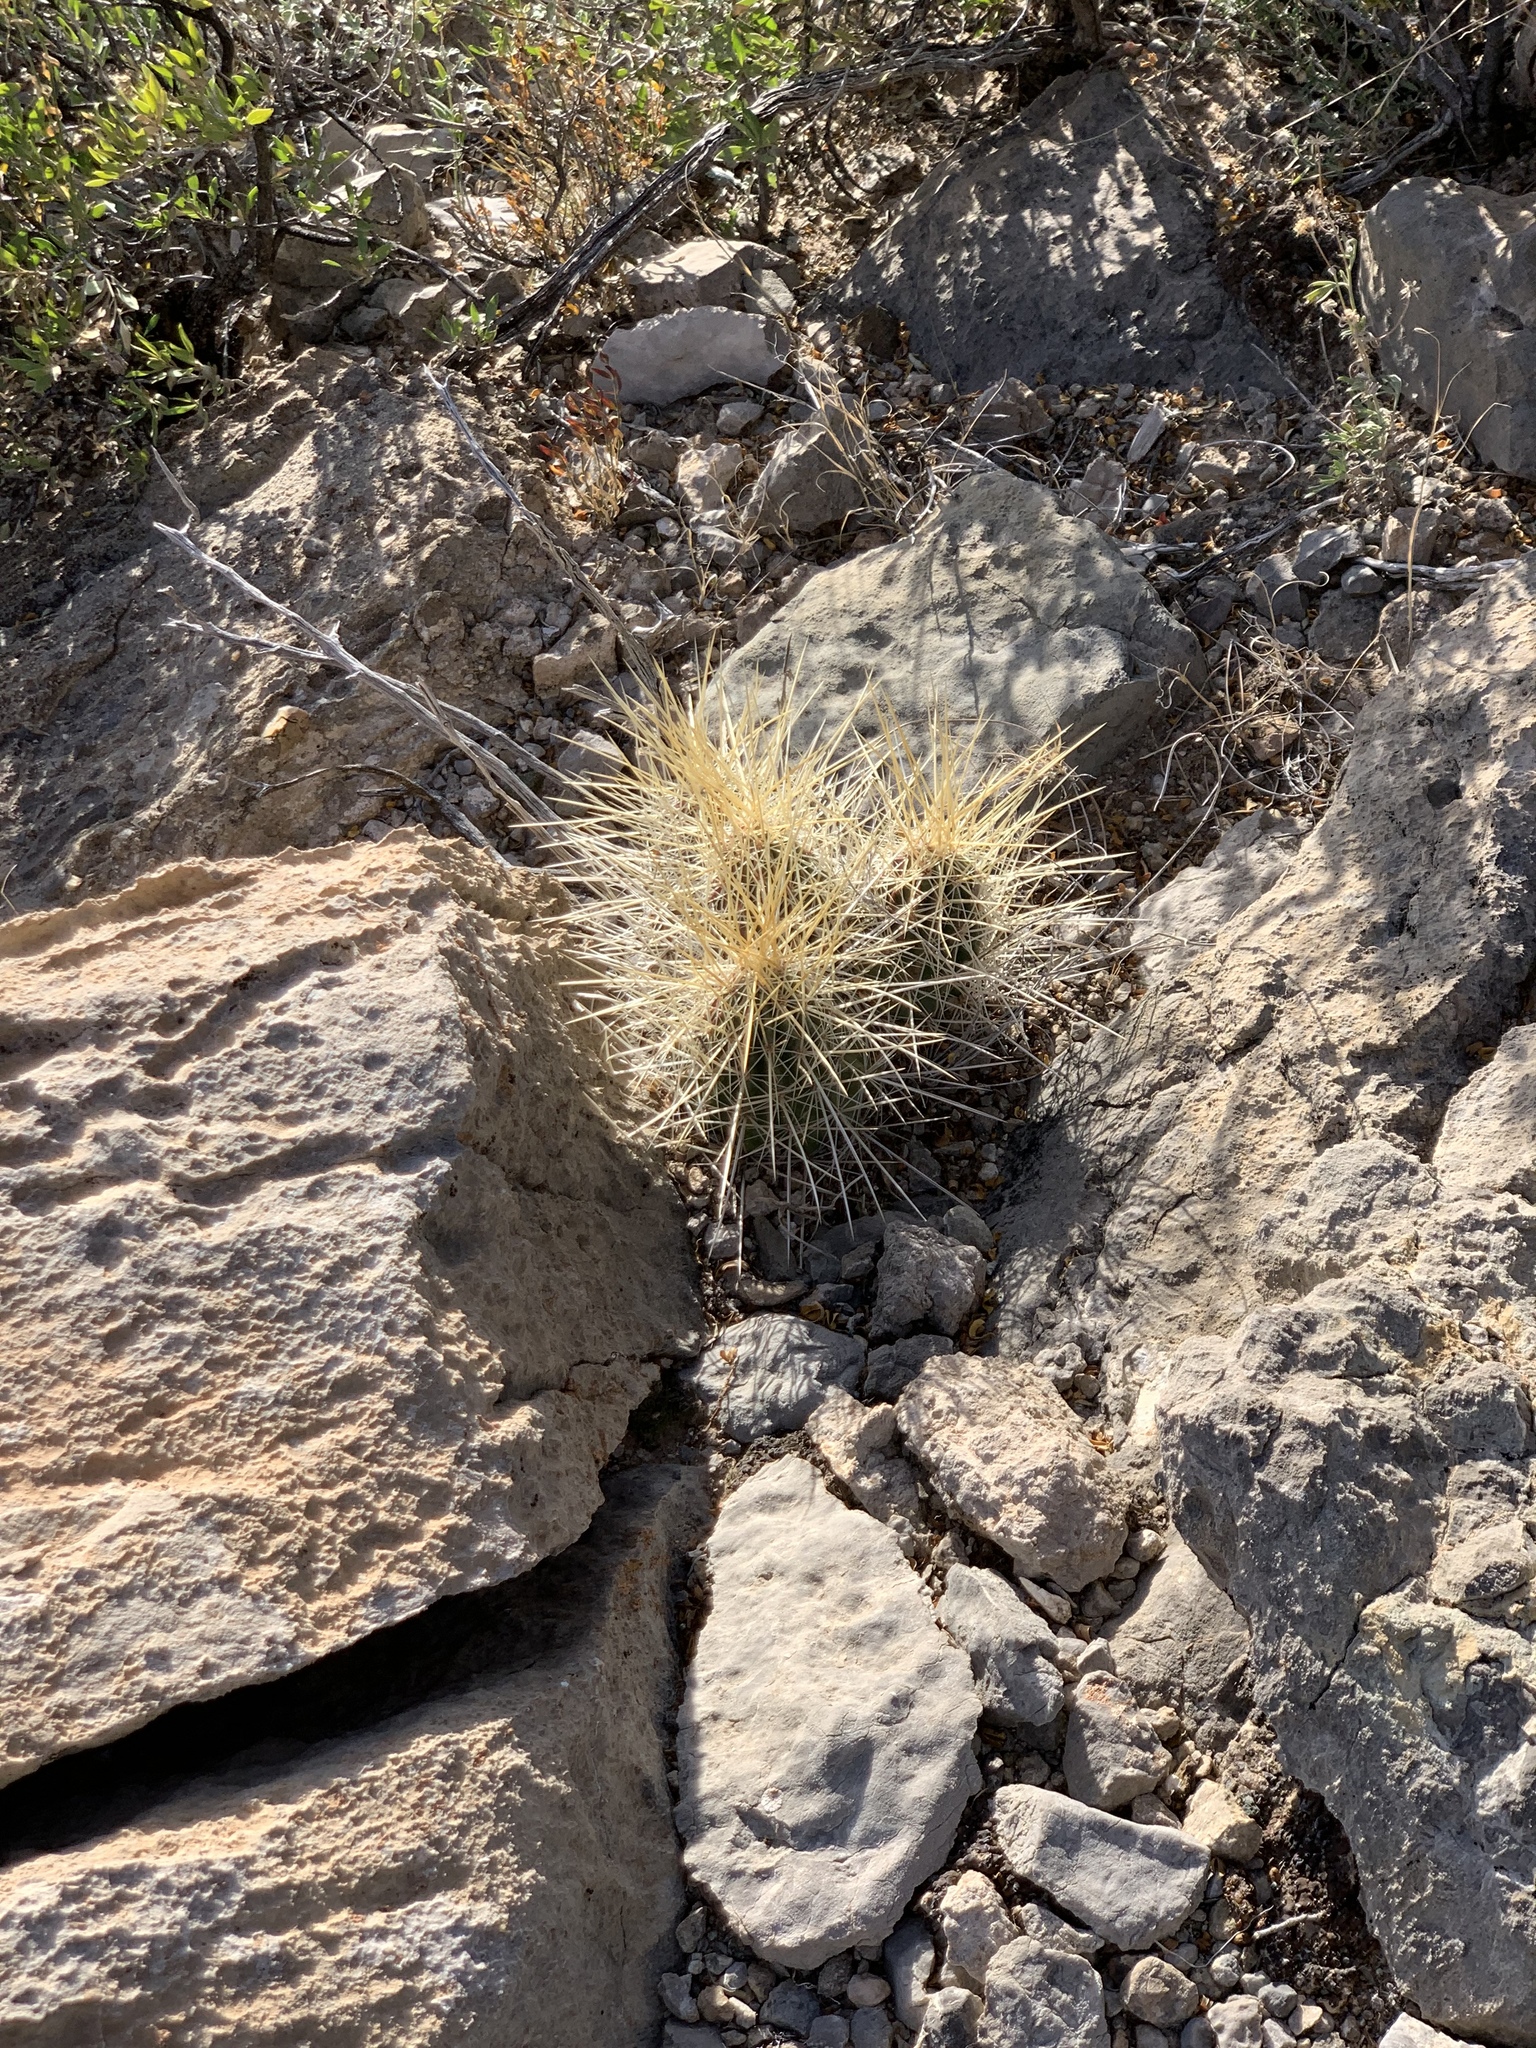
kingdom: Plantae
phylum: Tracheophyta
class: Magnoliopsida
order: Caryophyllales
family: Cactaceae
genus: Echinocereus
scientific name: Echinocereus stramineus
